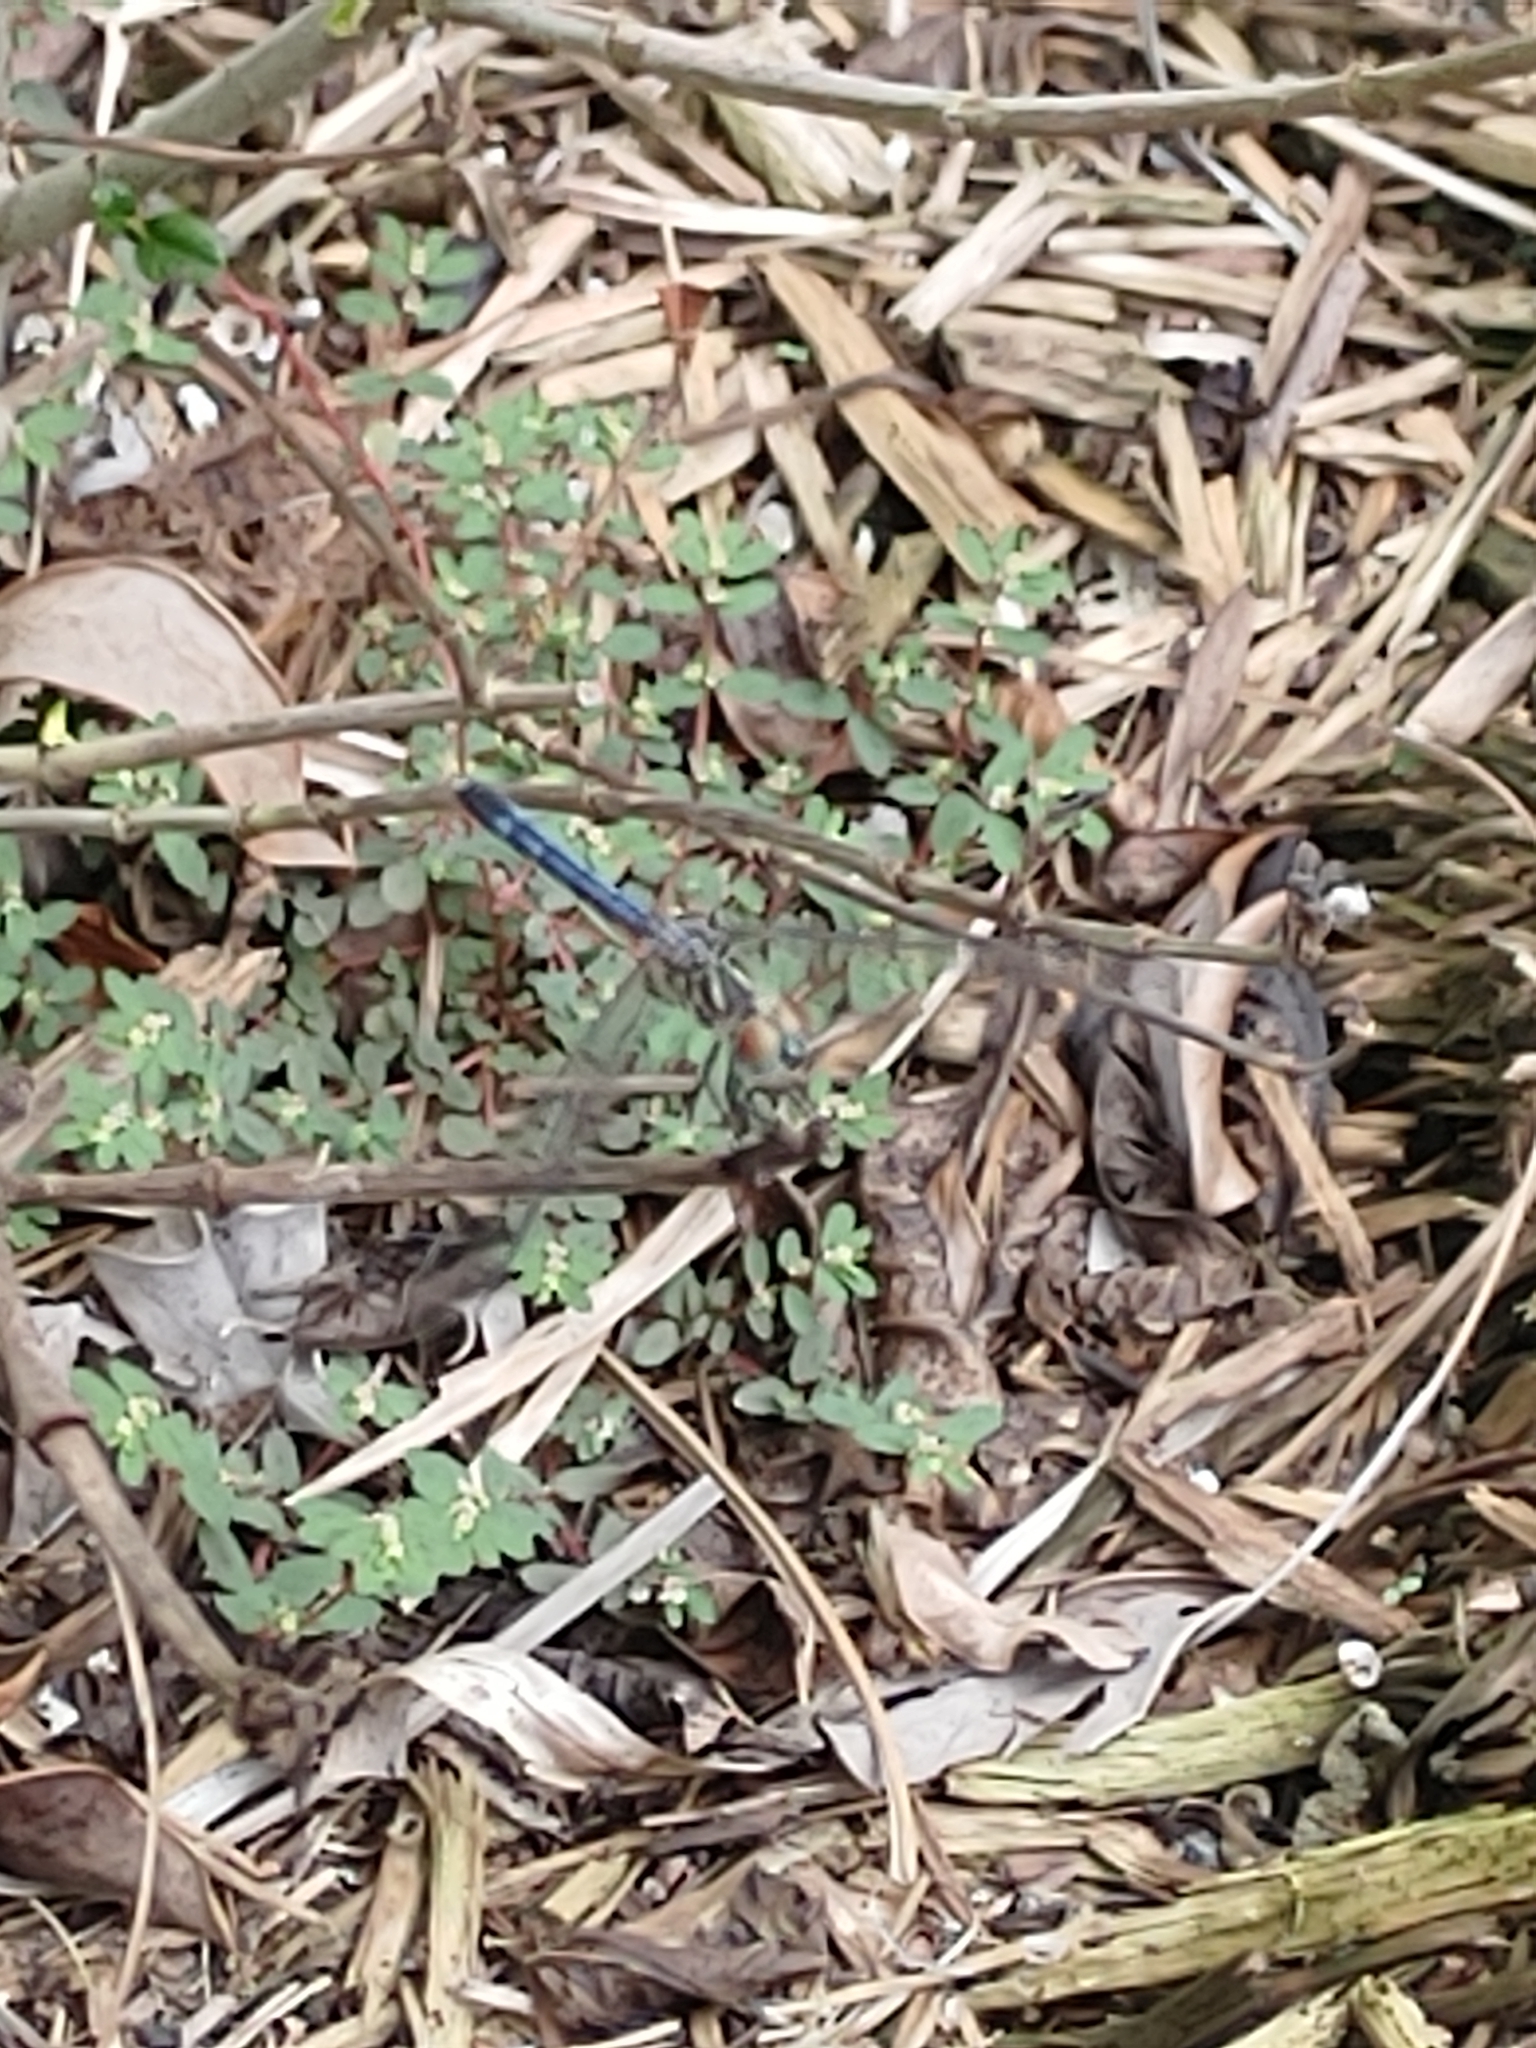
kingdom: Animalia
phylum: Arthropoda
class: Insecta
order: Odonata
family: Libellulidae
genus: Pachydiplax
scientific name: Pachydiplax longipennis
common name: Blue dasher
